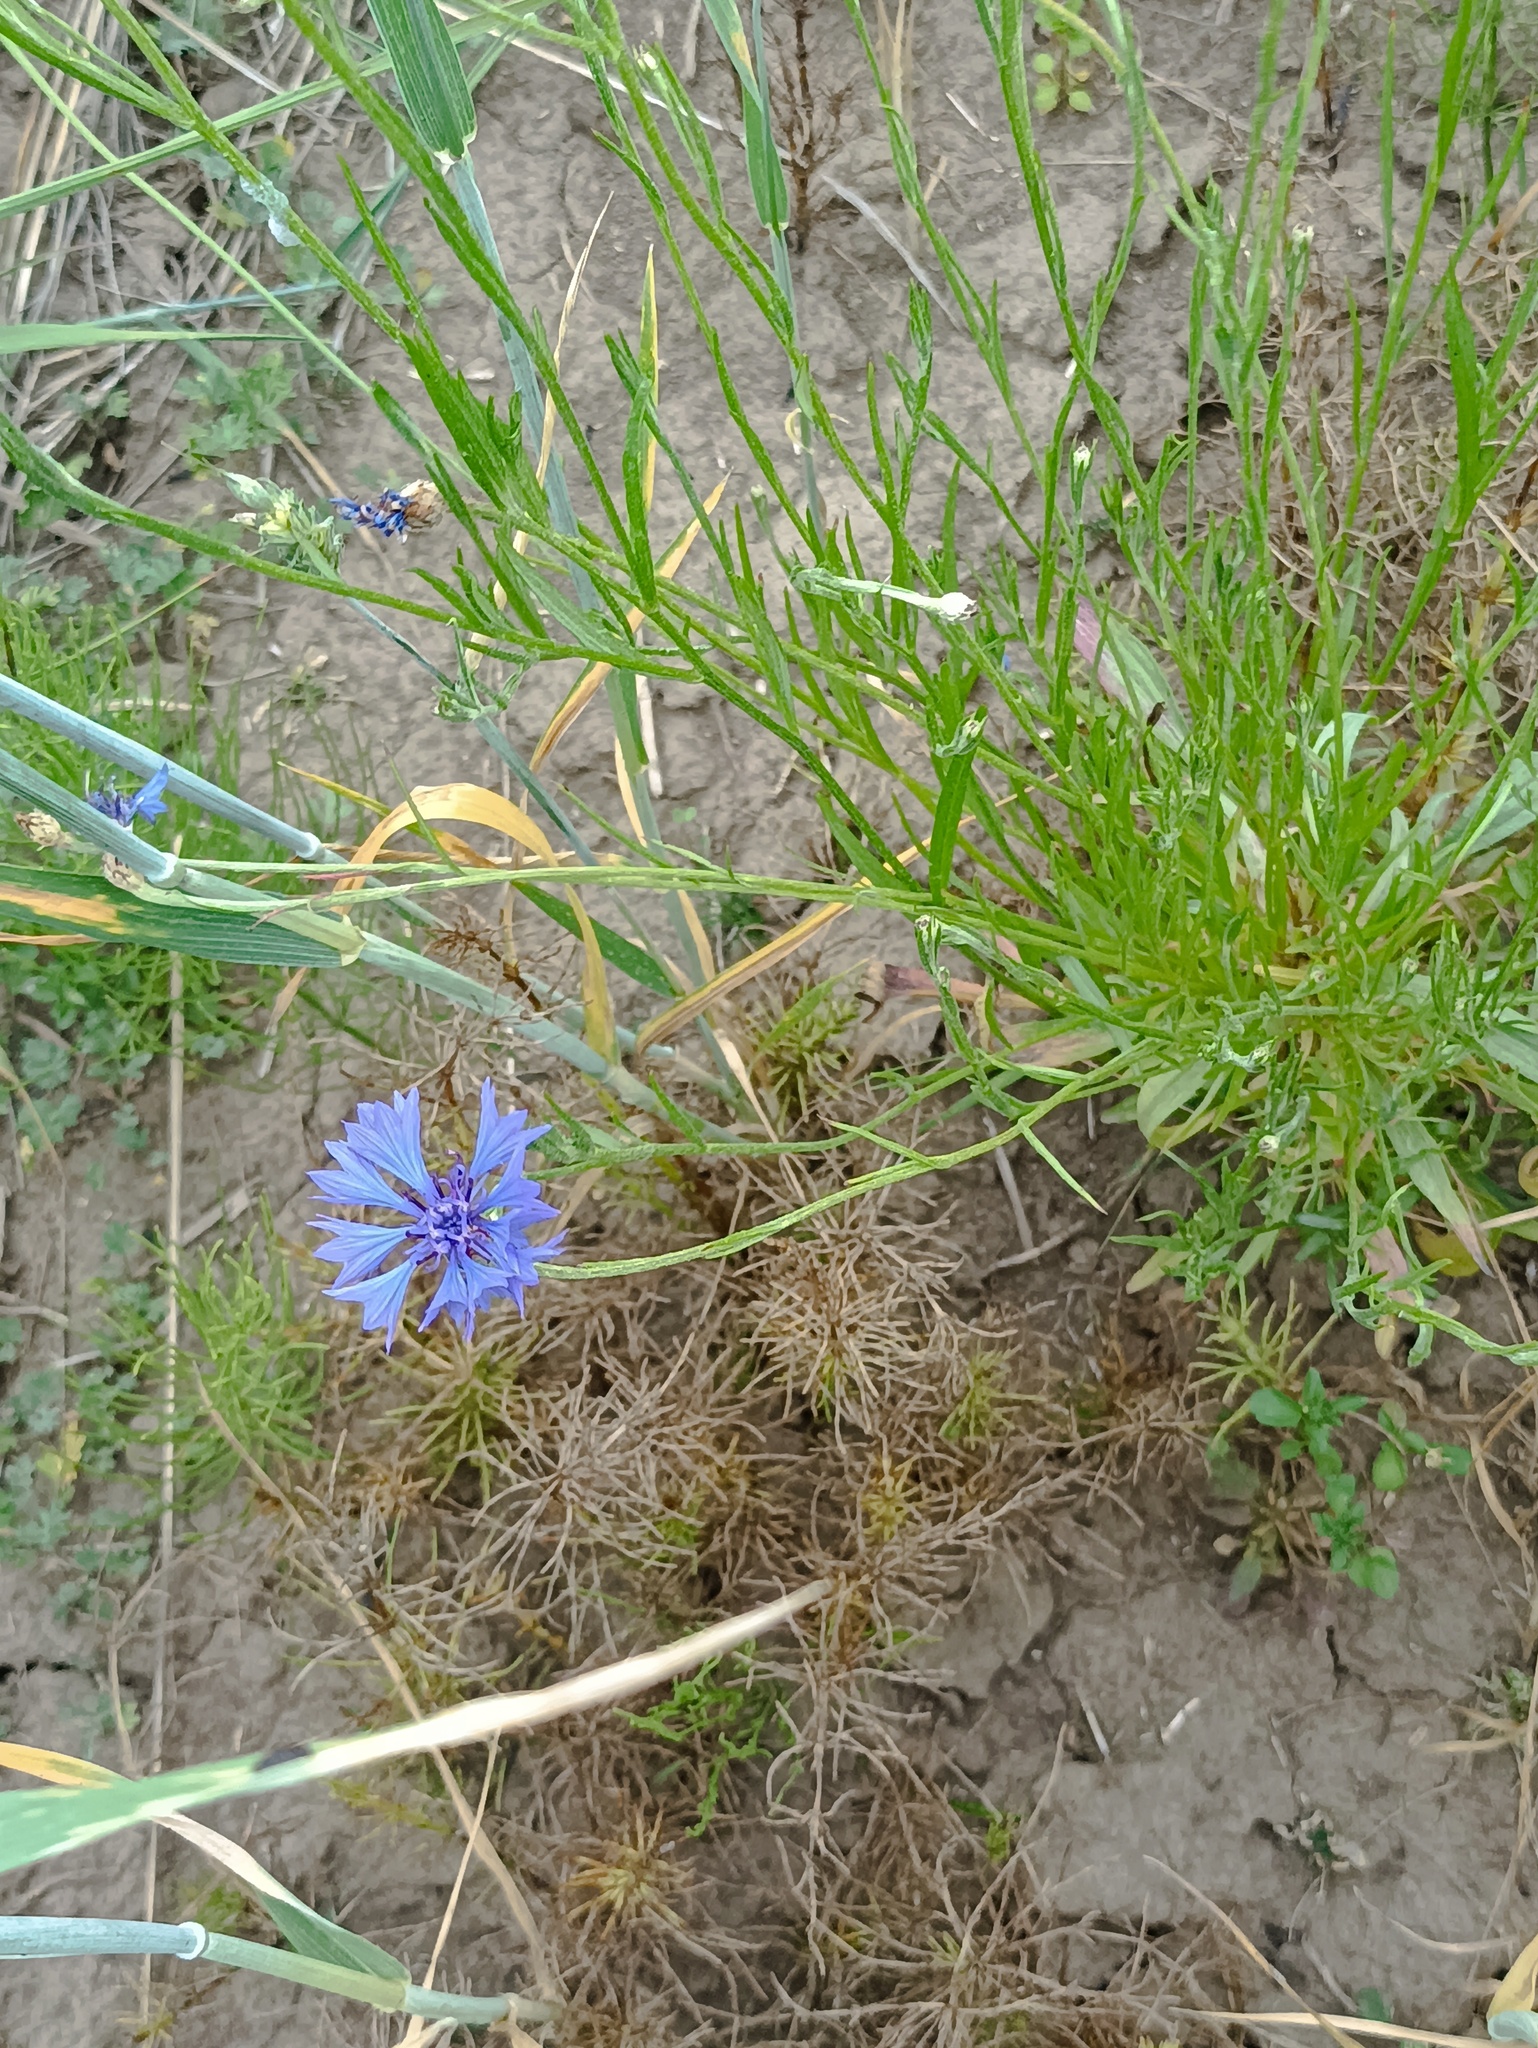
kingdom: Plantae
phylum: Tracheophyta
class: Magnoliopsida
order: Asterales
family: Asteraceae
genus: Centaurea
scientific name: Centaurea cyanus
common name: Cornflower
